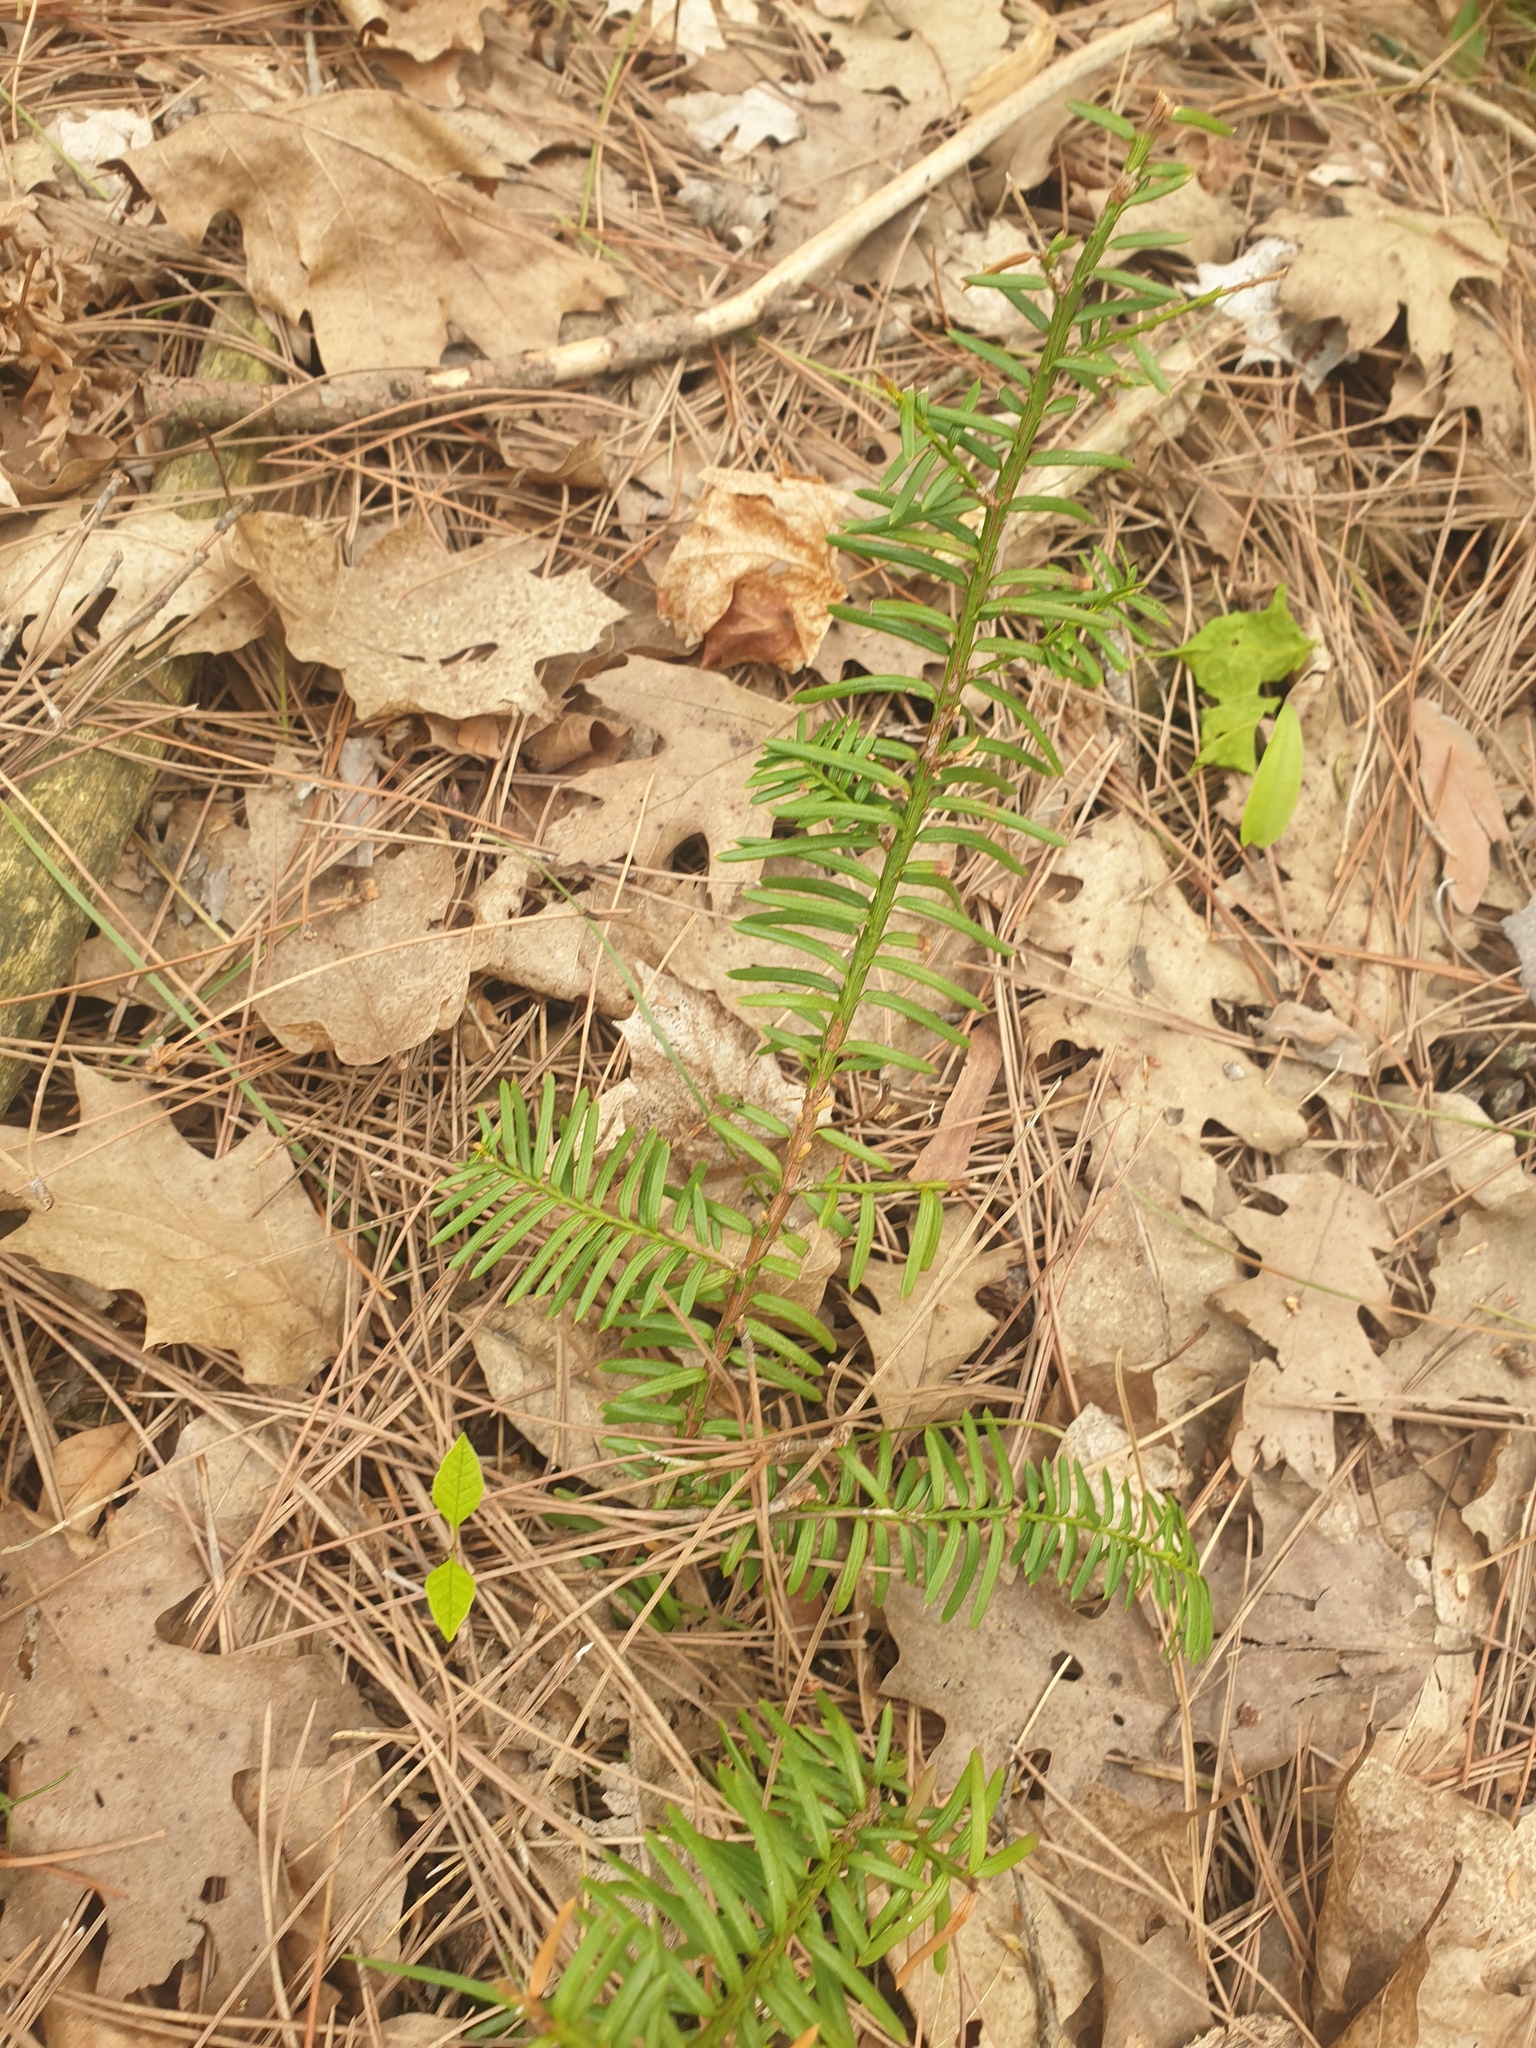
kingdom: Plantae
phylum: Tracheophyta
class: Pinopsida
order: Pinales
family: Taxaceae
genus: Taxus
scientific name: Taxus canadensis
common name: American yew
